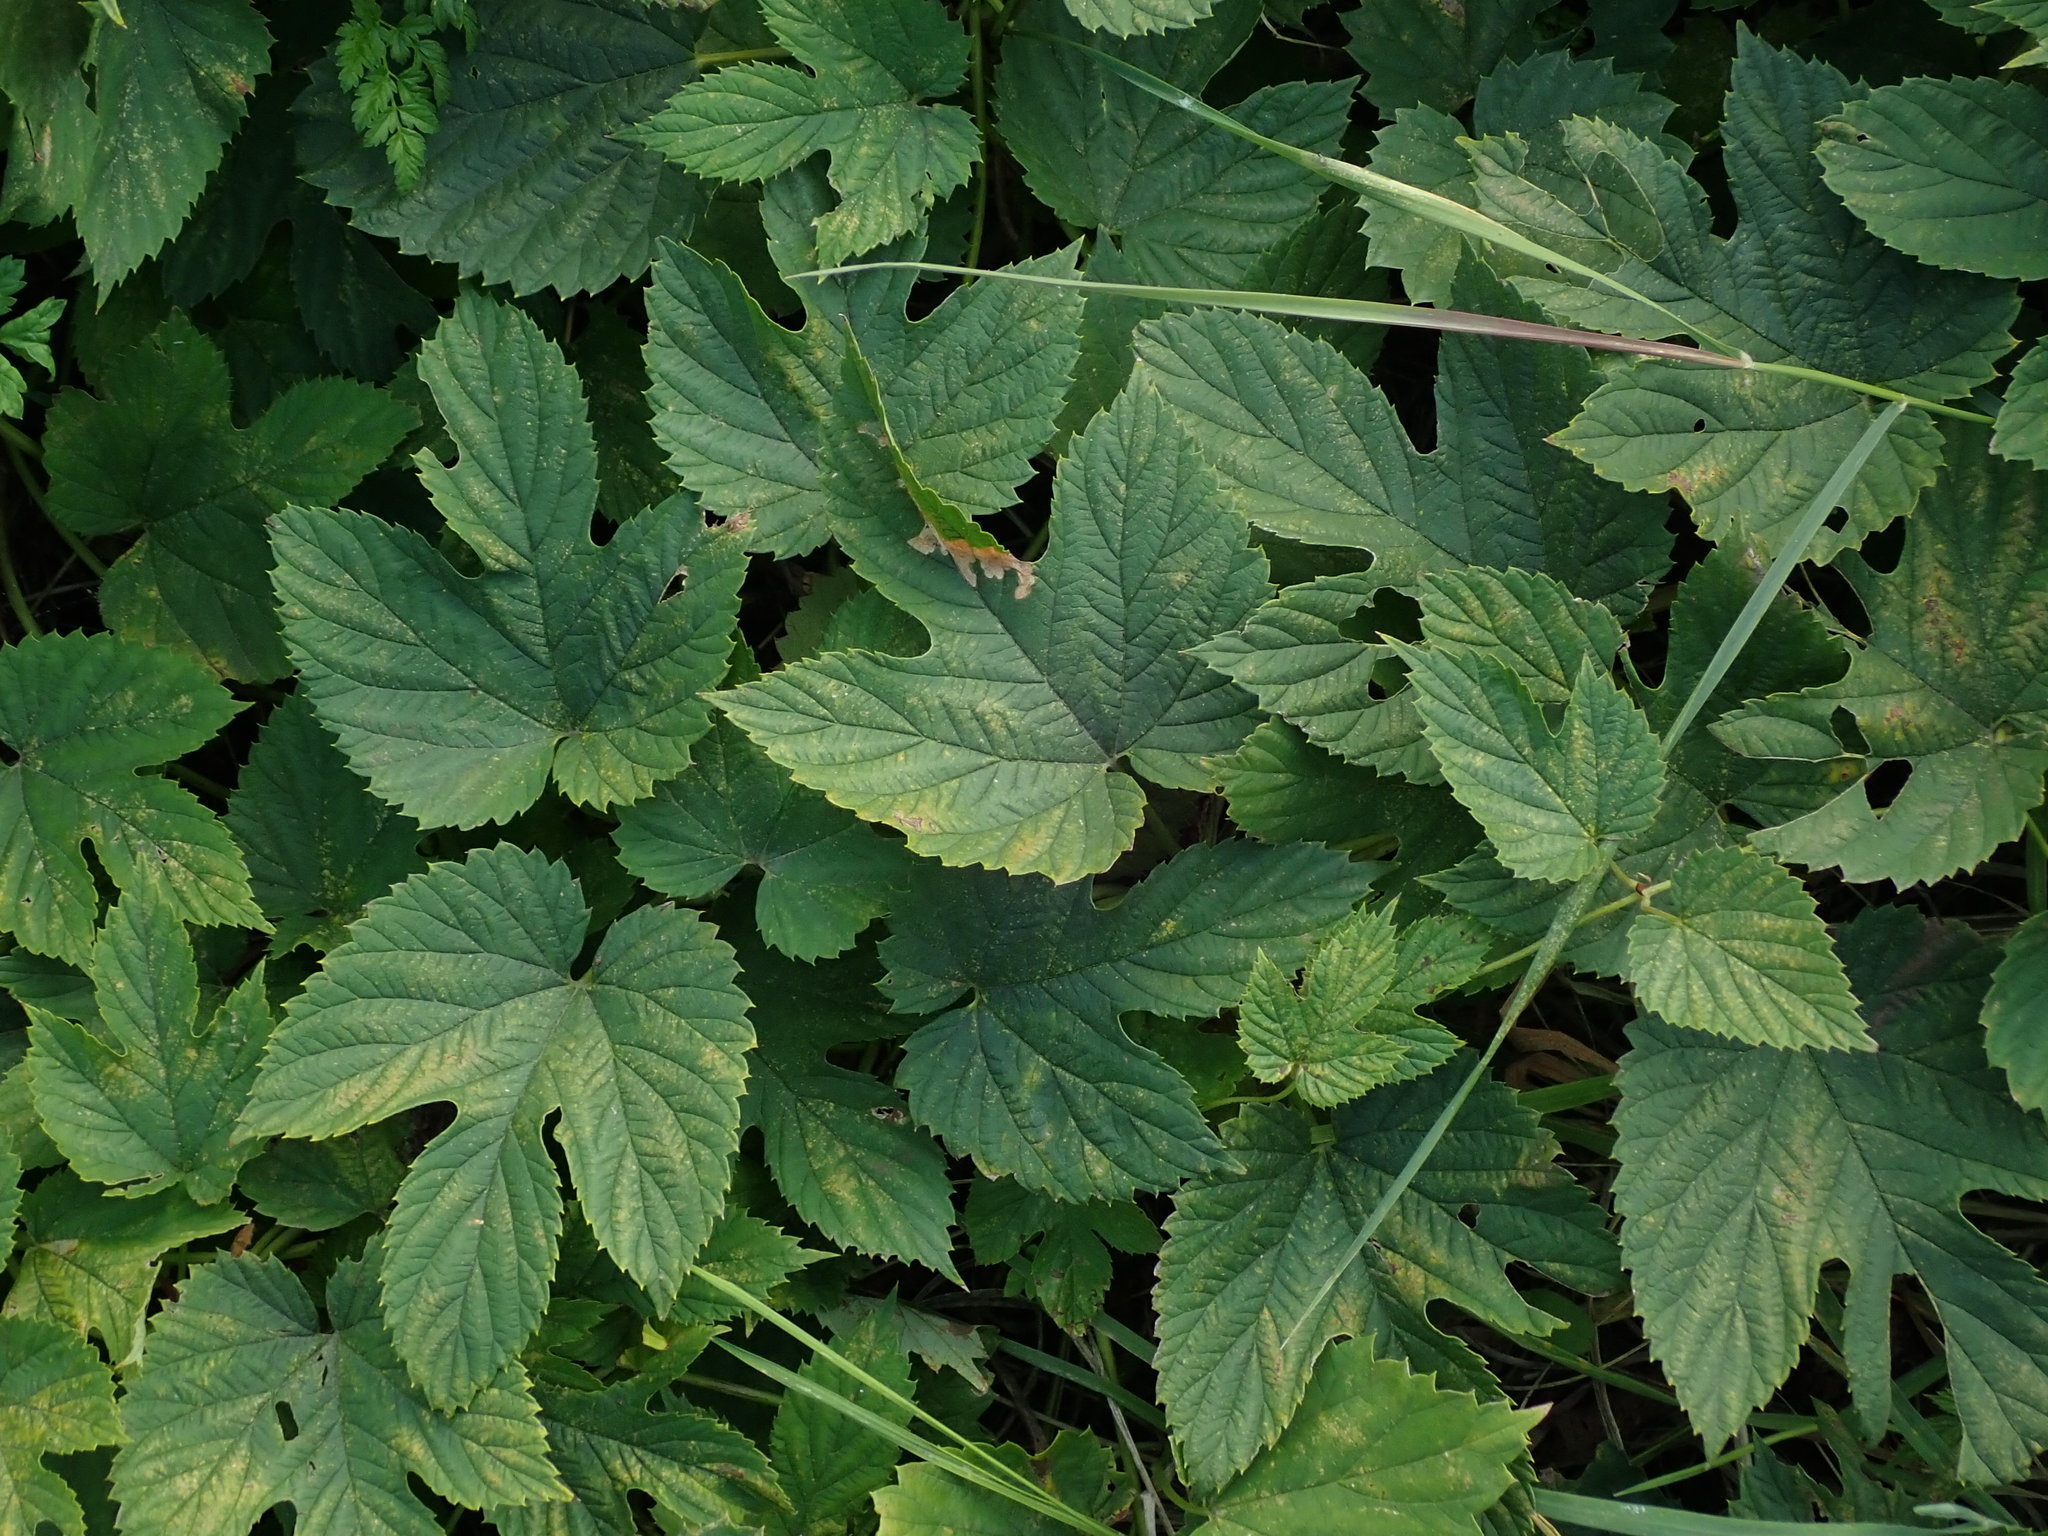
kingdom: Plantae
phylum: Tracheophyta
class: Magnoliopsida
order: Rosales
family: Cannabaceae
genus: Humulus
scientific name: Humulus lupulus
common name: Hop
